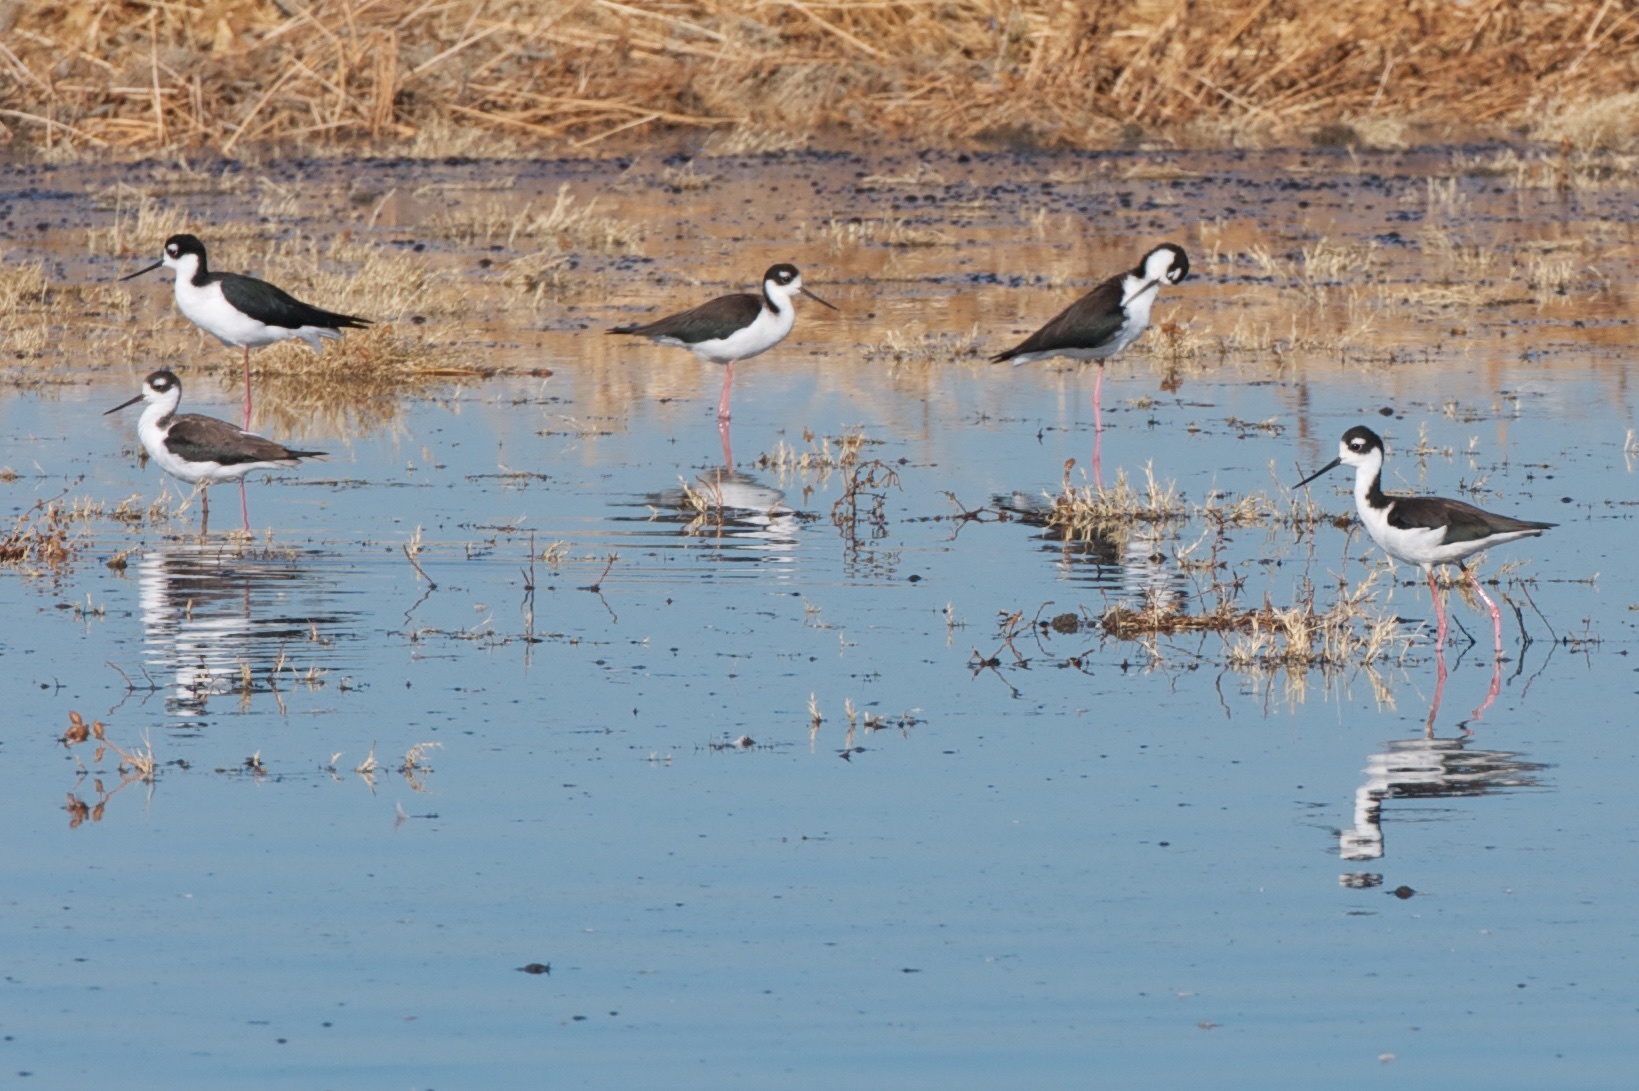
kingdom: Animalia
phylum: Chordata
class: Aves
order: Charadriiformes
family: Recurvirostridae
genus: Himantopus
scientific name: Himantopus mexicanus
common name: Black-necked stilt
